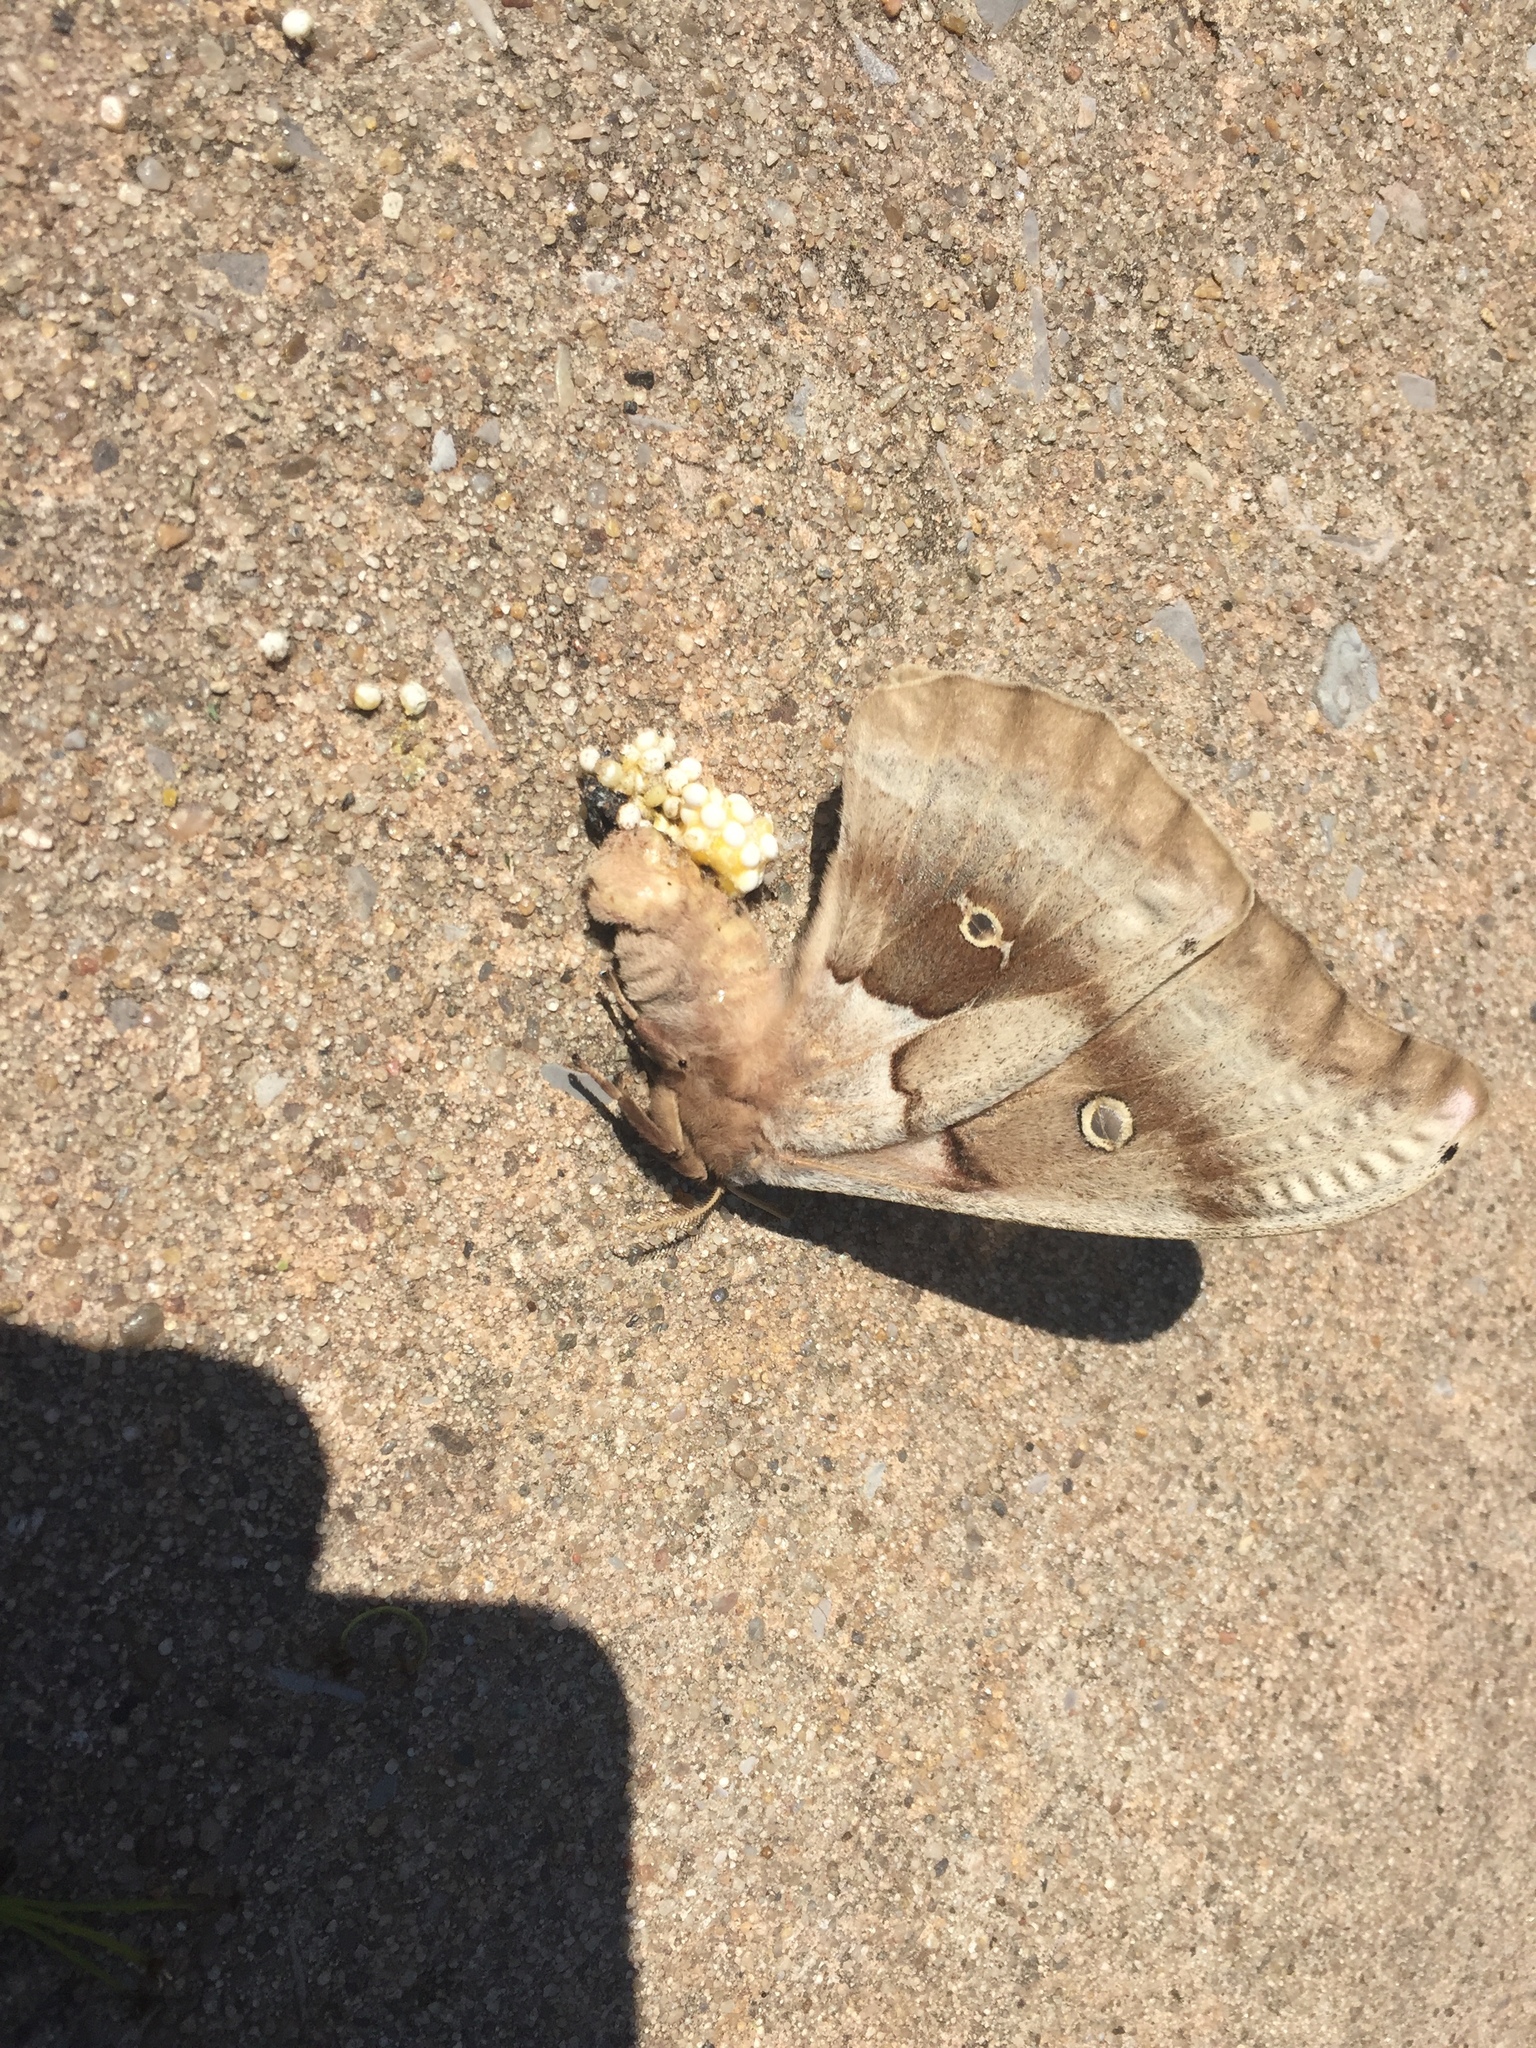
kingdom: Animalia
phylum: Arthropoda
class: Insecta
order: Lepidoptera
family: Saturniidae
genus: Antheraea
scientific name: Antheraea polyphemus
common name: Polyphemus moth
